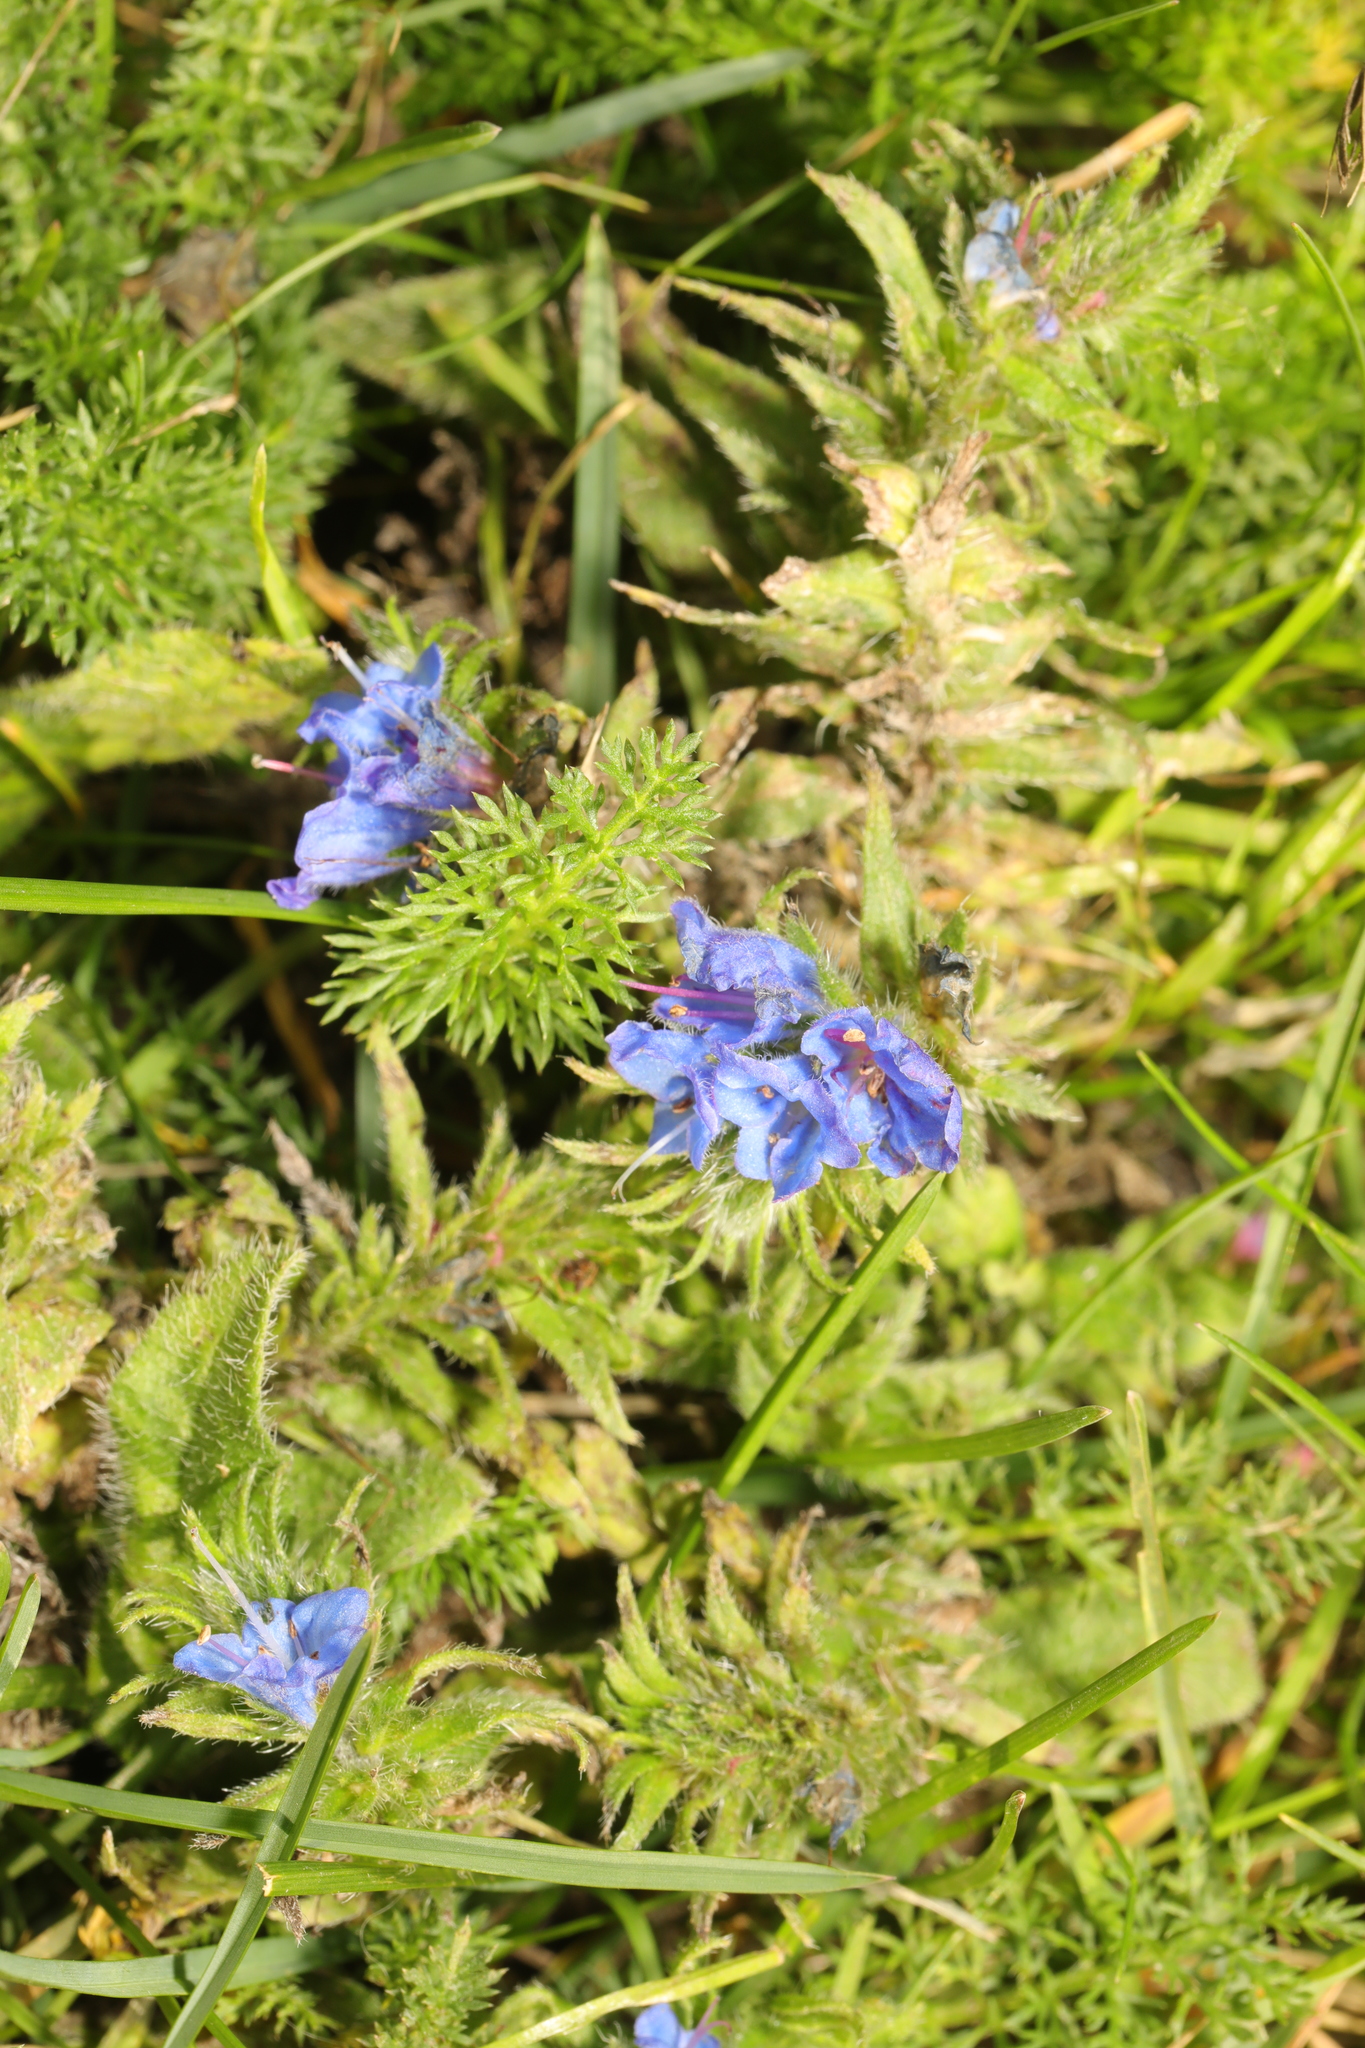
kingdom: Plantae
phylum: Tracheophyta
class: Magnoliopsida
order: Boraginales
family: Boraginaceae
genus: Echium
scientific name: Echium vulgare
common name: Common viper's bugloss
